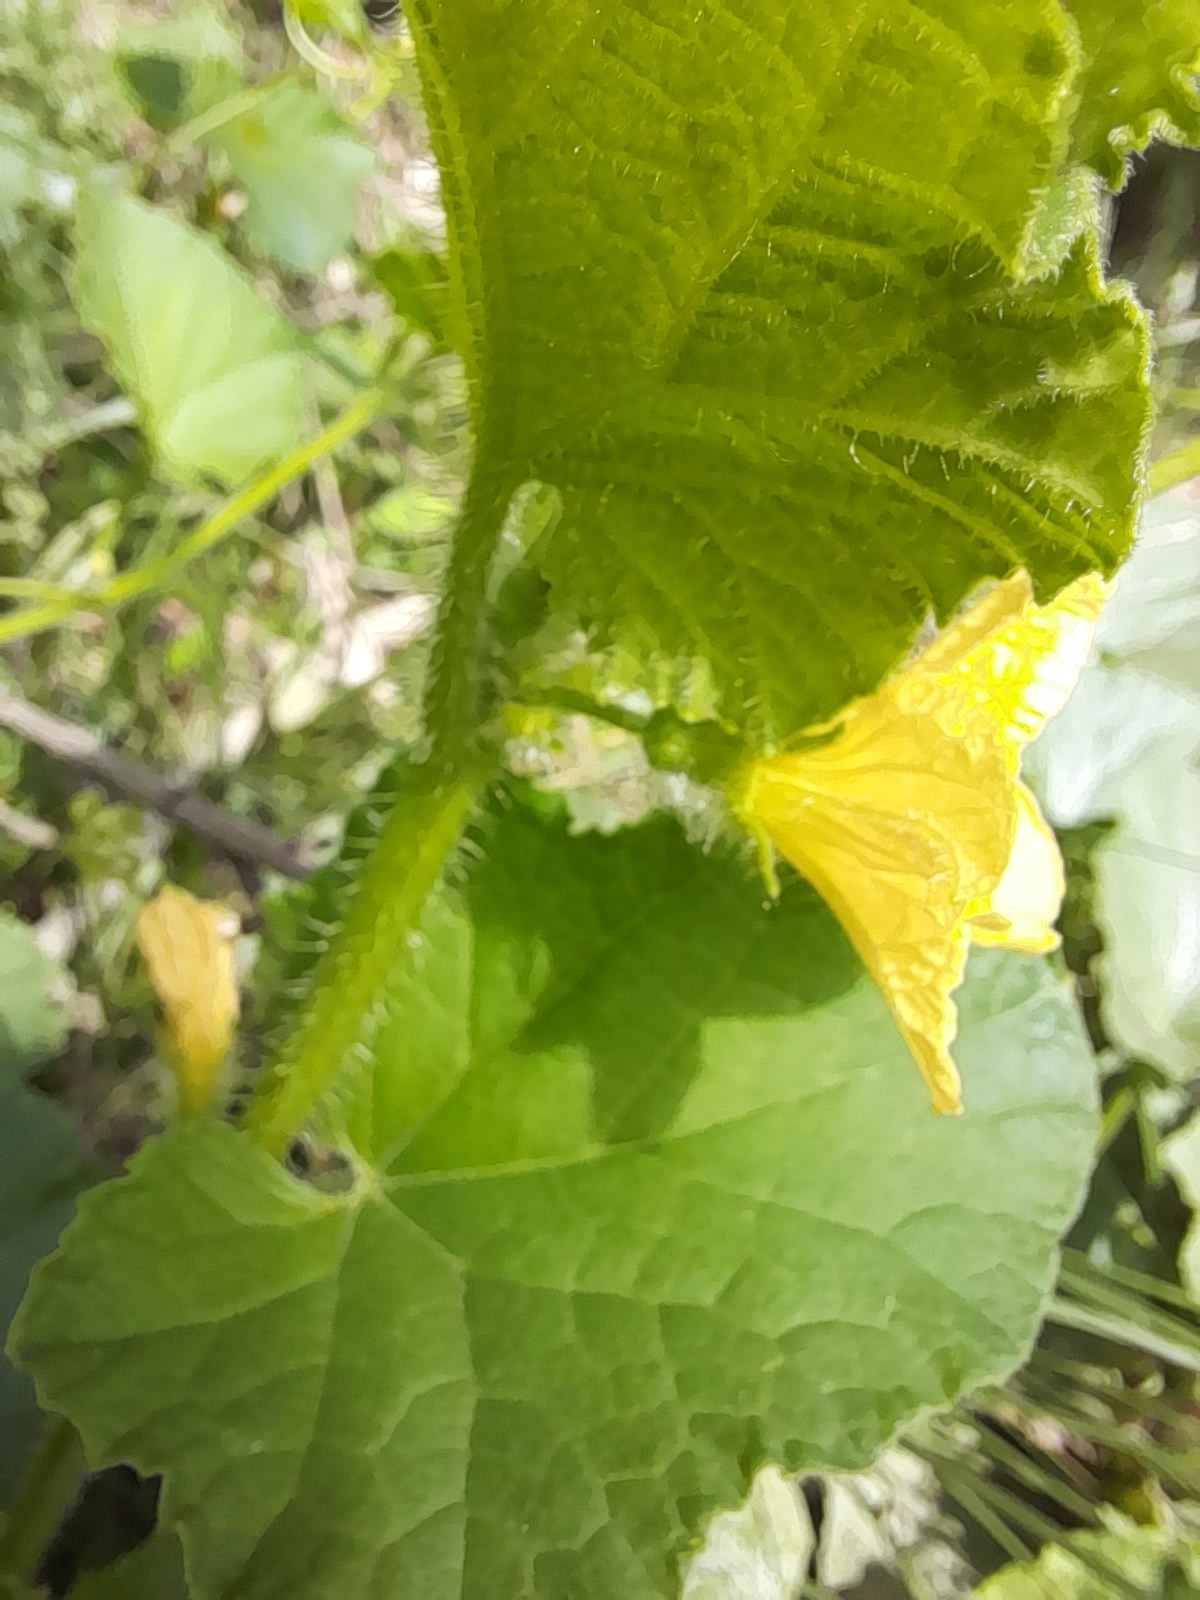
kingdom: Plantae
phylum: Tracheophyta
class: Magnoliopsida
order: Cucurbitales
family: Cucurbitaceae
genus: Cucumis
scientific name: Cucumis melo
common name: Melon
